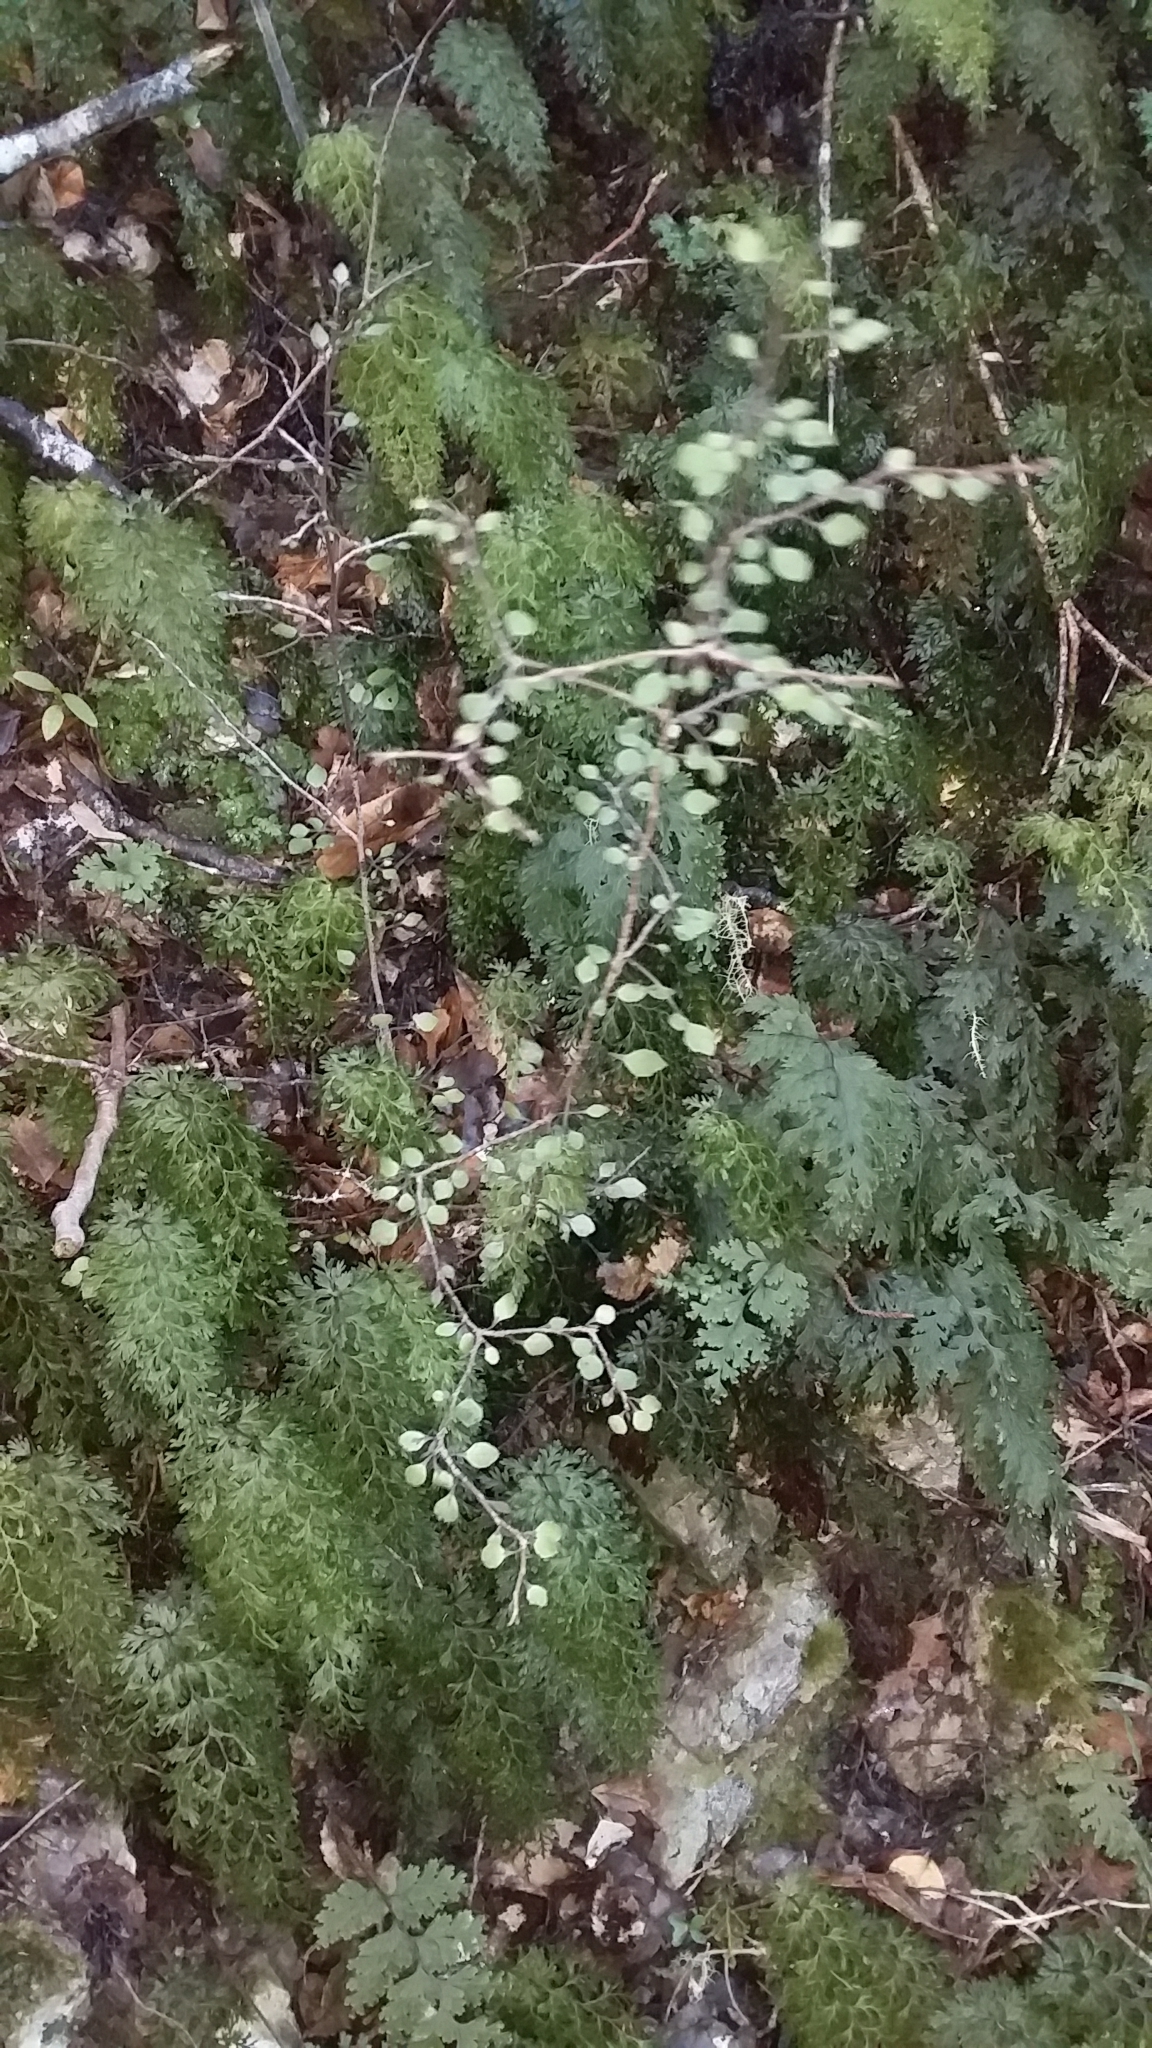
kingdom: Plantae
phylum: Tracheophyta
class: Magnoliopsida
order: Apiales
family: Araliaceae
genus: Raukaua
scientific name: Raukaua anomalus
